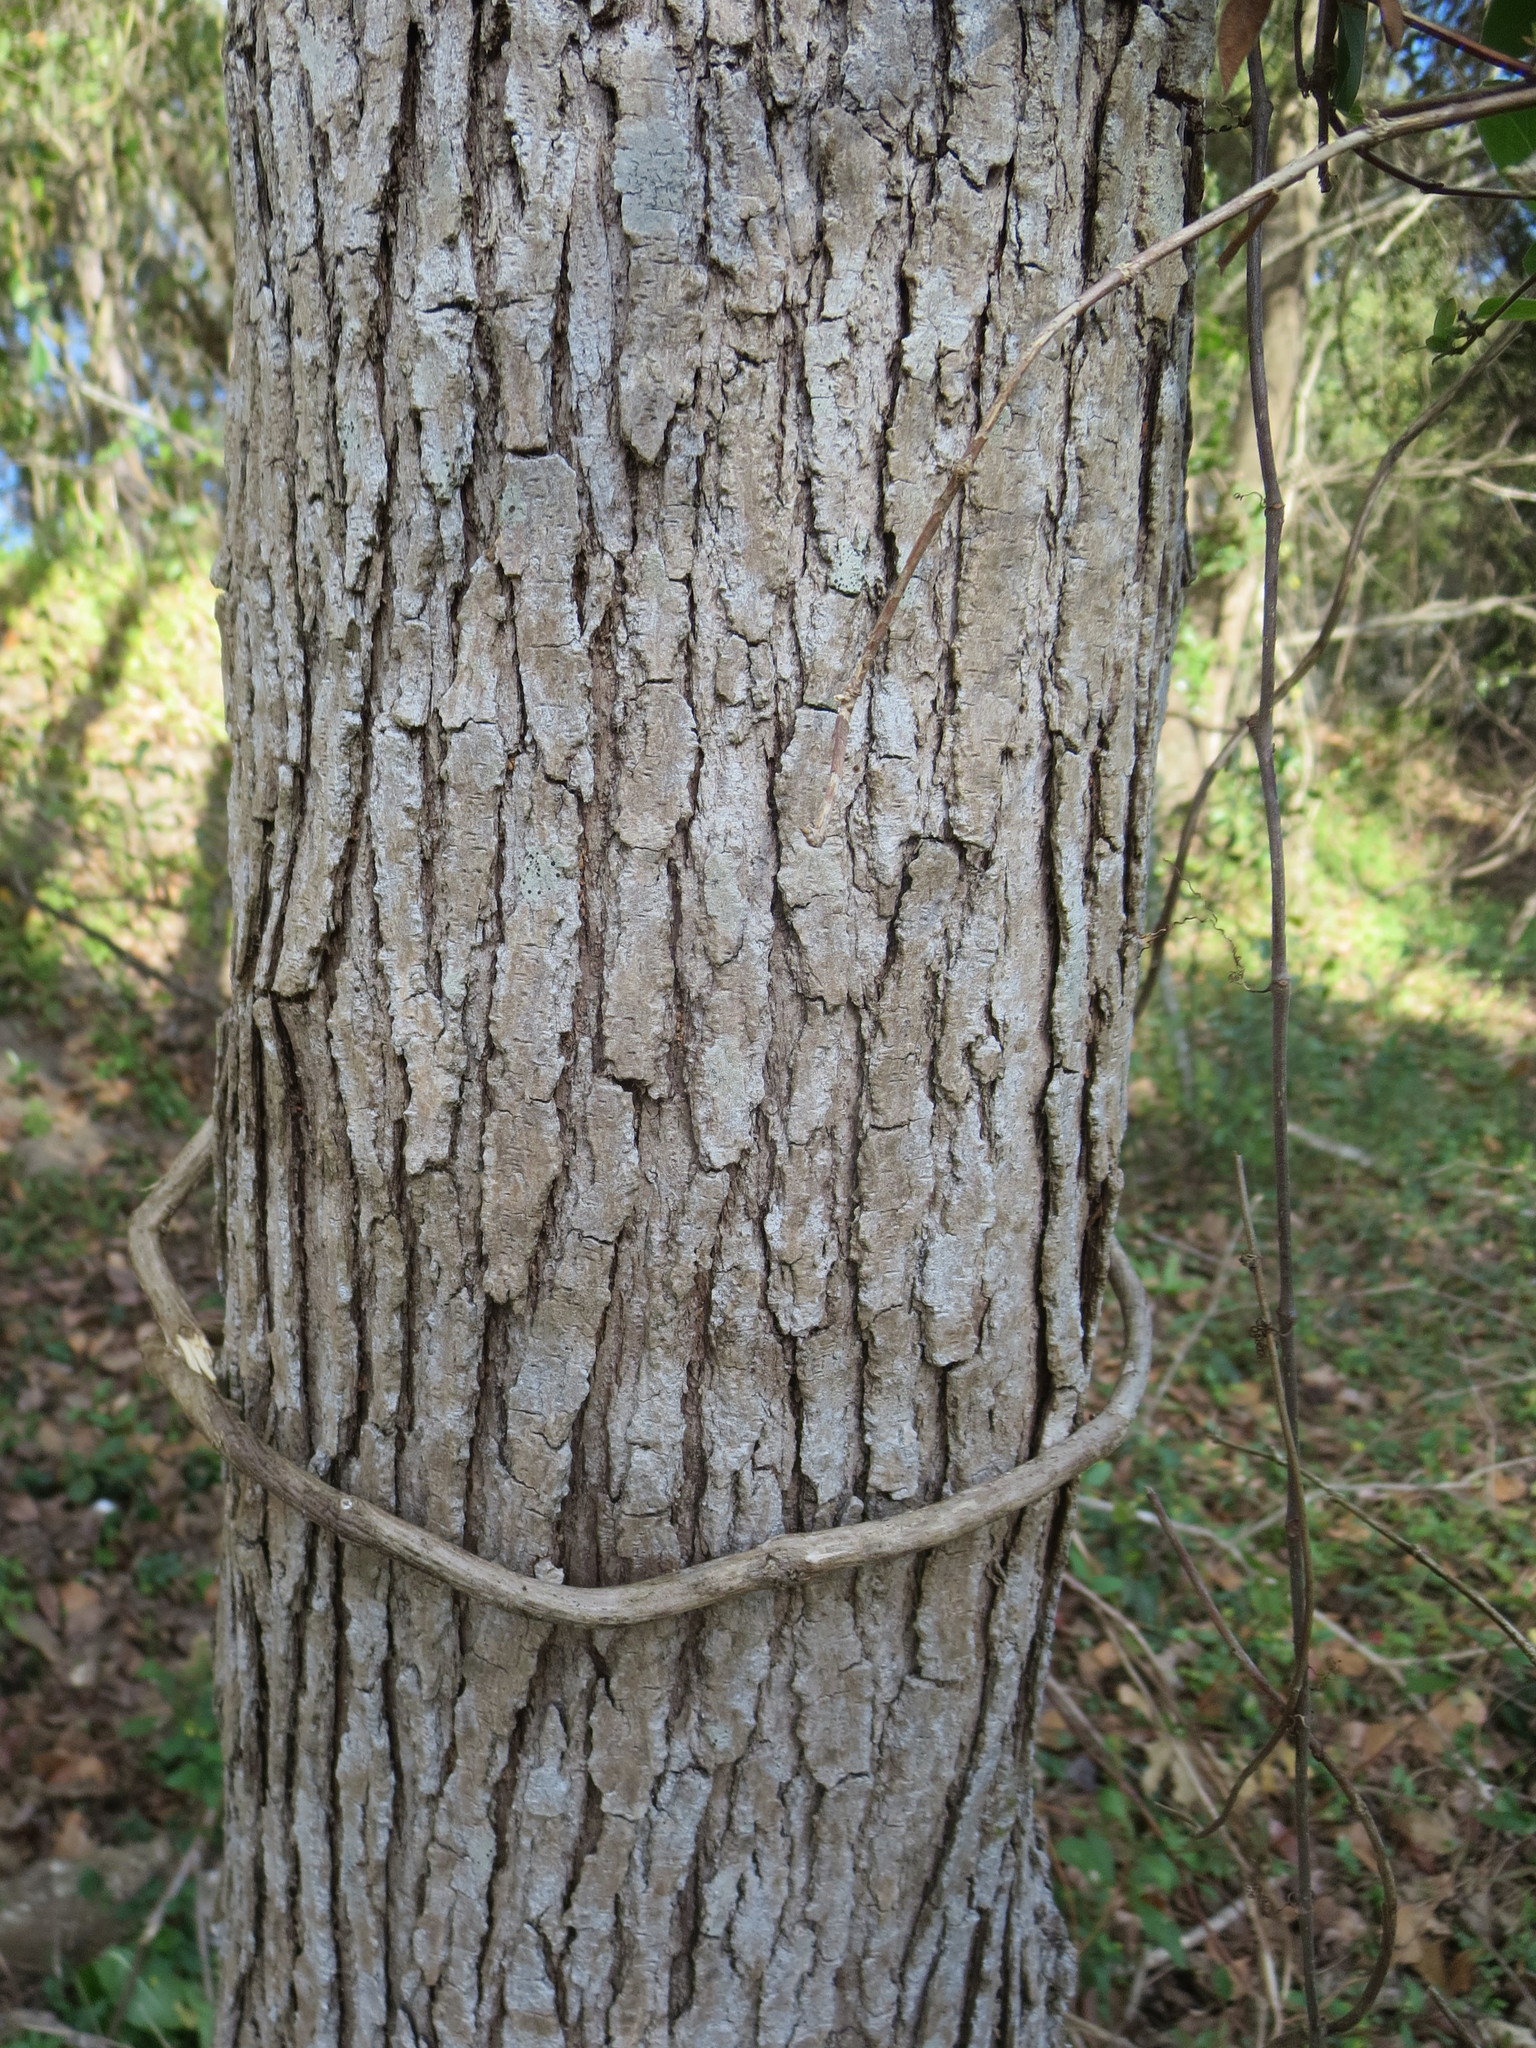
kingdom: Plantae
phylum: Tracheophyta
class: Magnoliopsida
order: Malpighiales
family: Euphorbiaceae
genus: Triadica
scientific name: Triadica sebifera
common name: Chinese tallow
